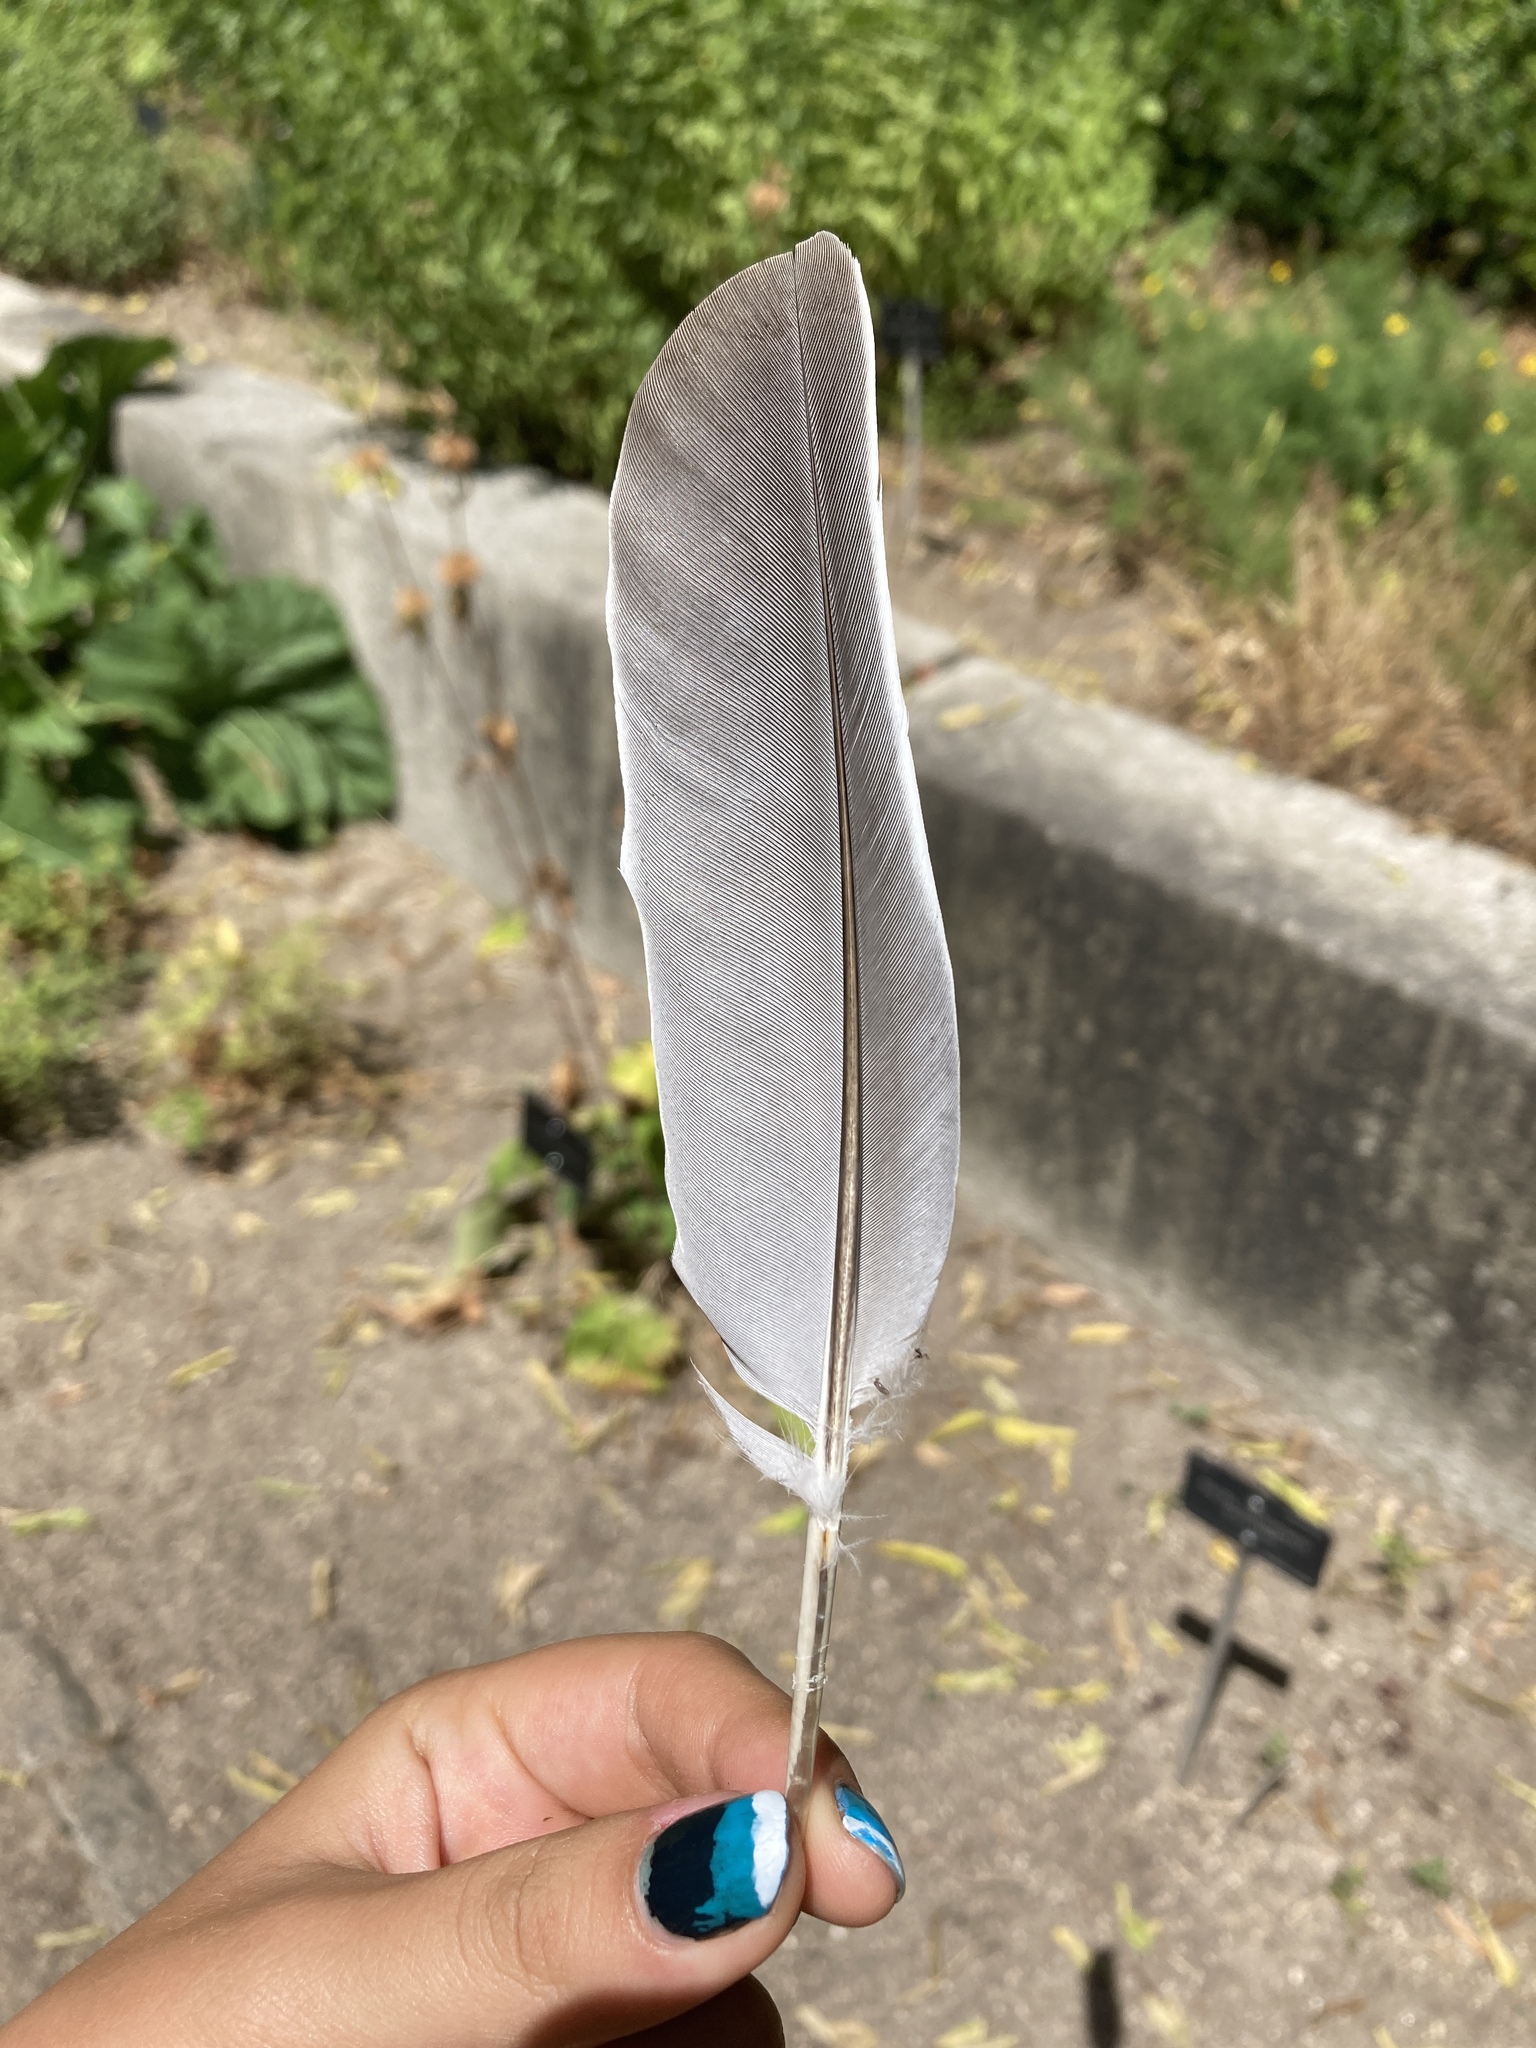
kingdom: Animalia
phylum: Chordata
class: Aves
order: Columbiformes
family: Columbidae
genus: Columba
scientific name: Columba palumbus
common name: Common wood pigeon
